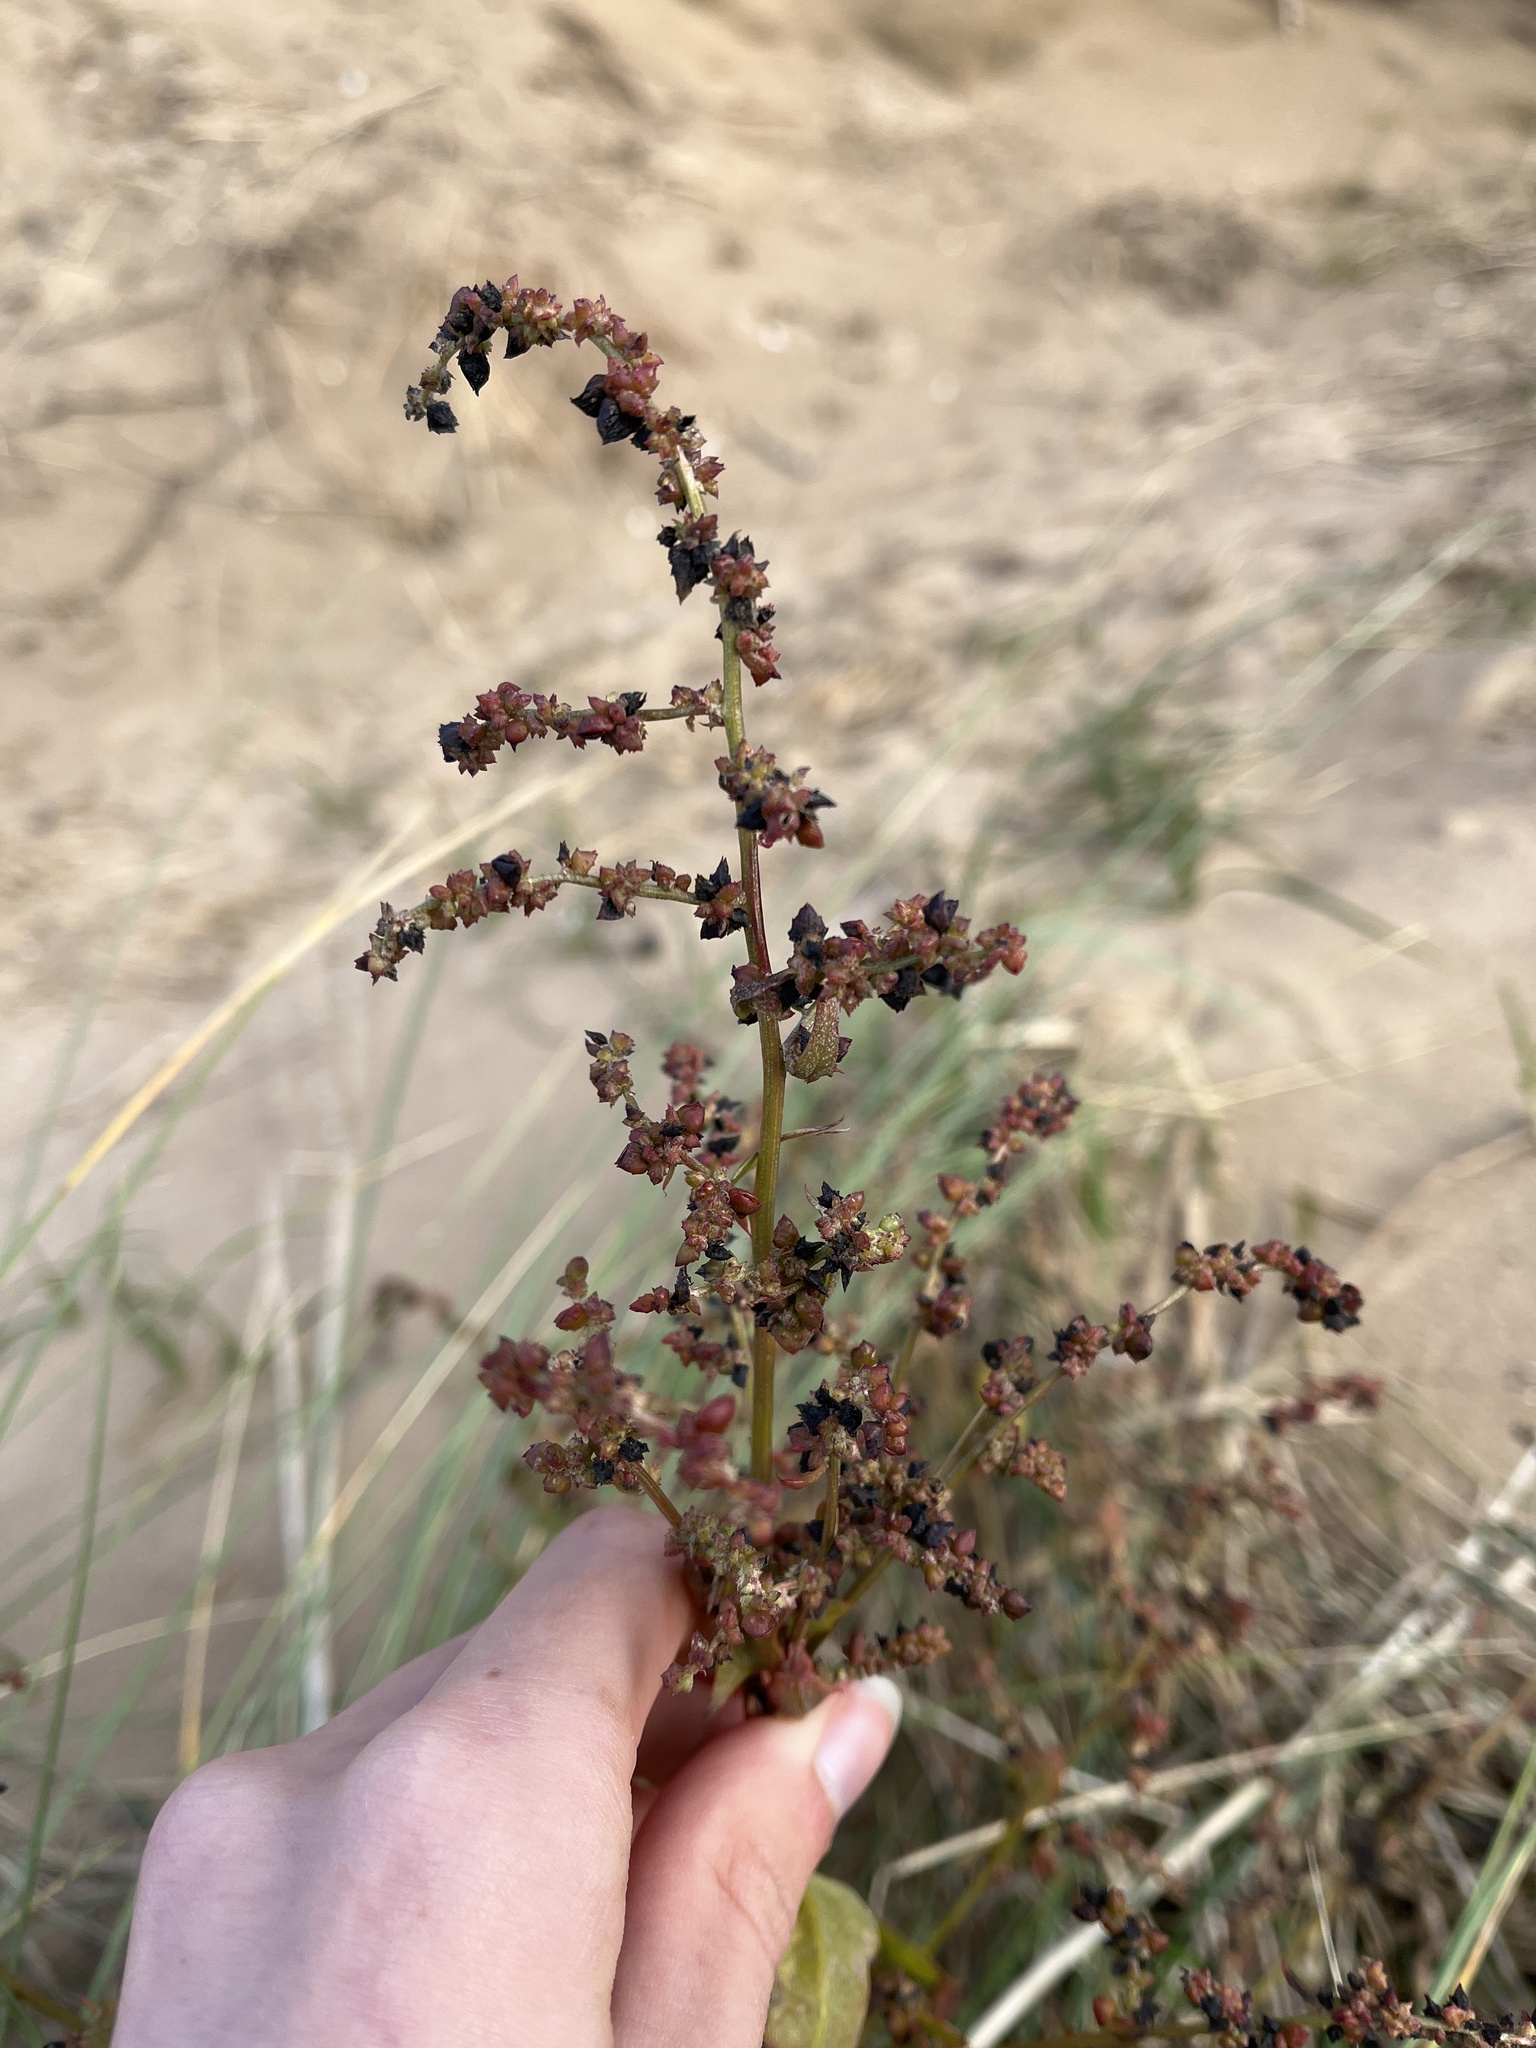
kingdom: Plantae
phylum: Tracheophyta
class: Magnoliopsida
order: Caryophyllales
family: Amaranthaceae
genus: Atriplex
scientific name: Atriplex prostrata
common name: Spear-leaved orache
